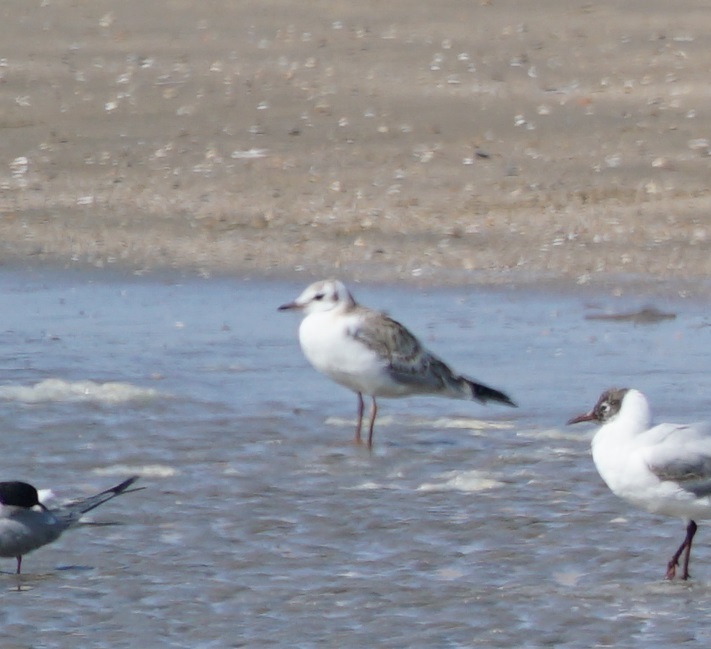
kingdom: Animalia
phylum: Chordata
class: Aves
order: Charadriiformes
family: Laridae
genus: Chroicocephalus
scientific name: Chroicocephalus ridibundus
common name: Black-headed gull
